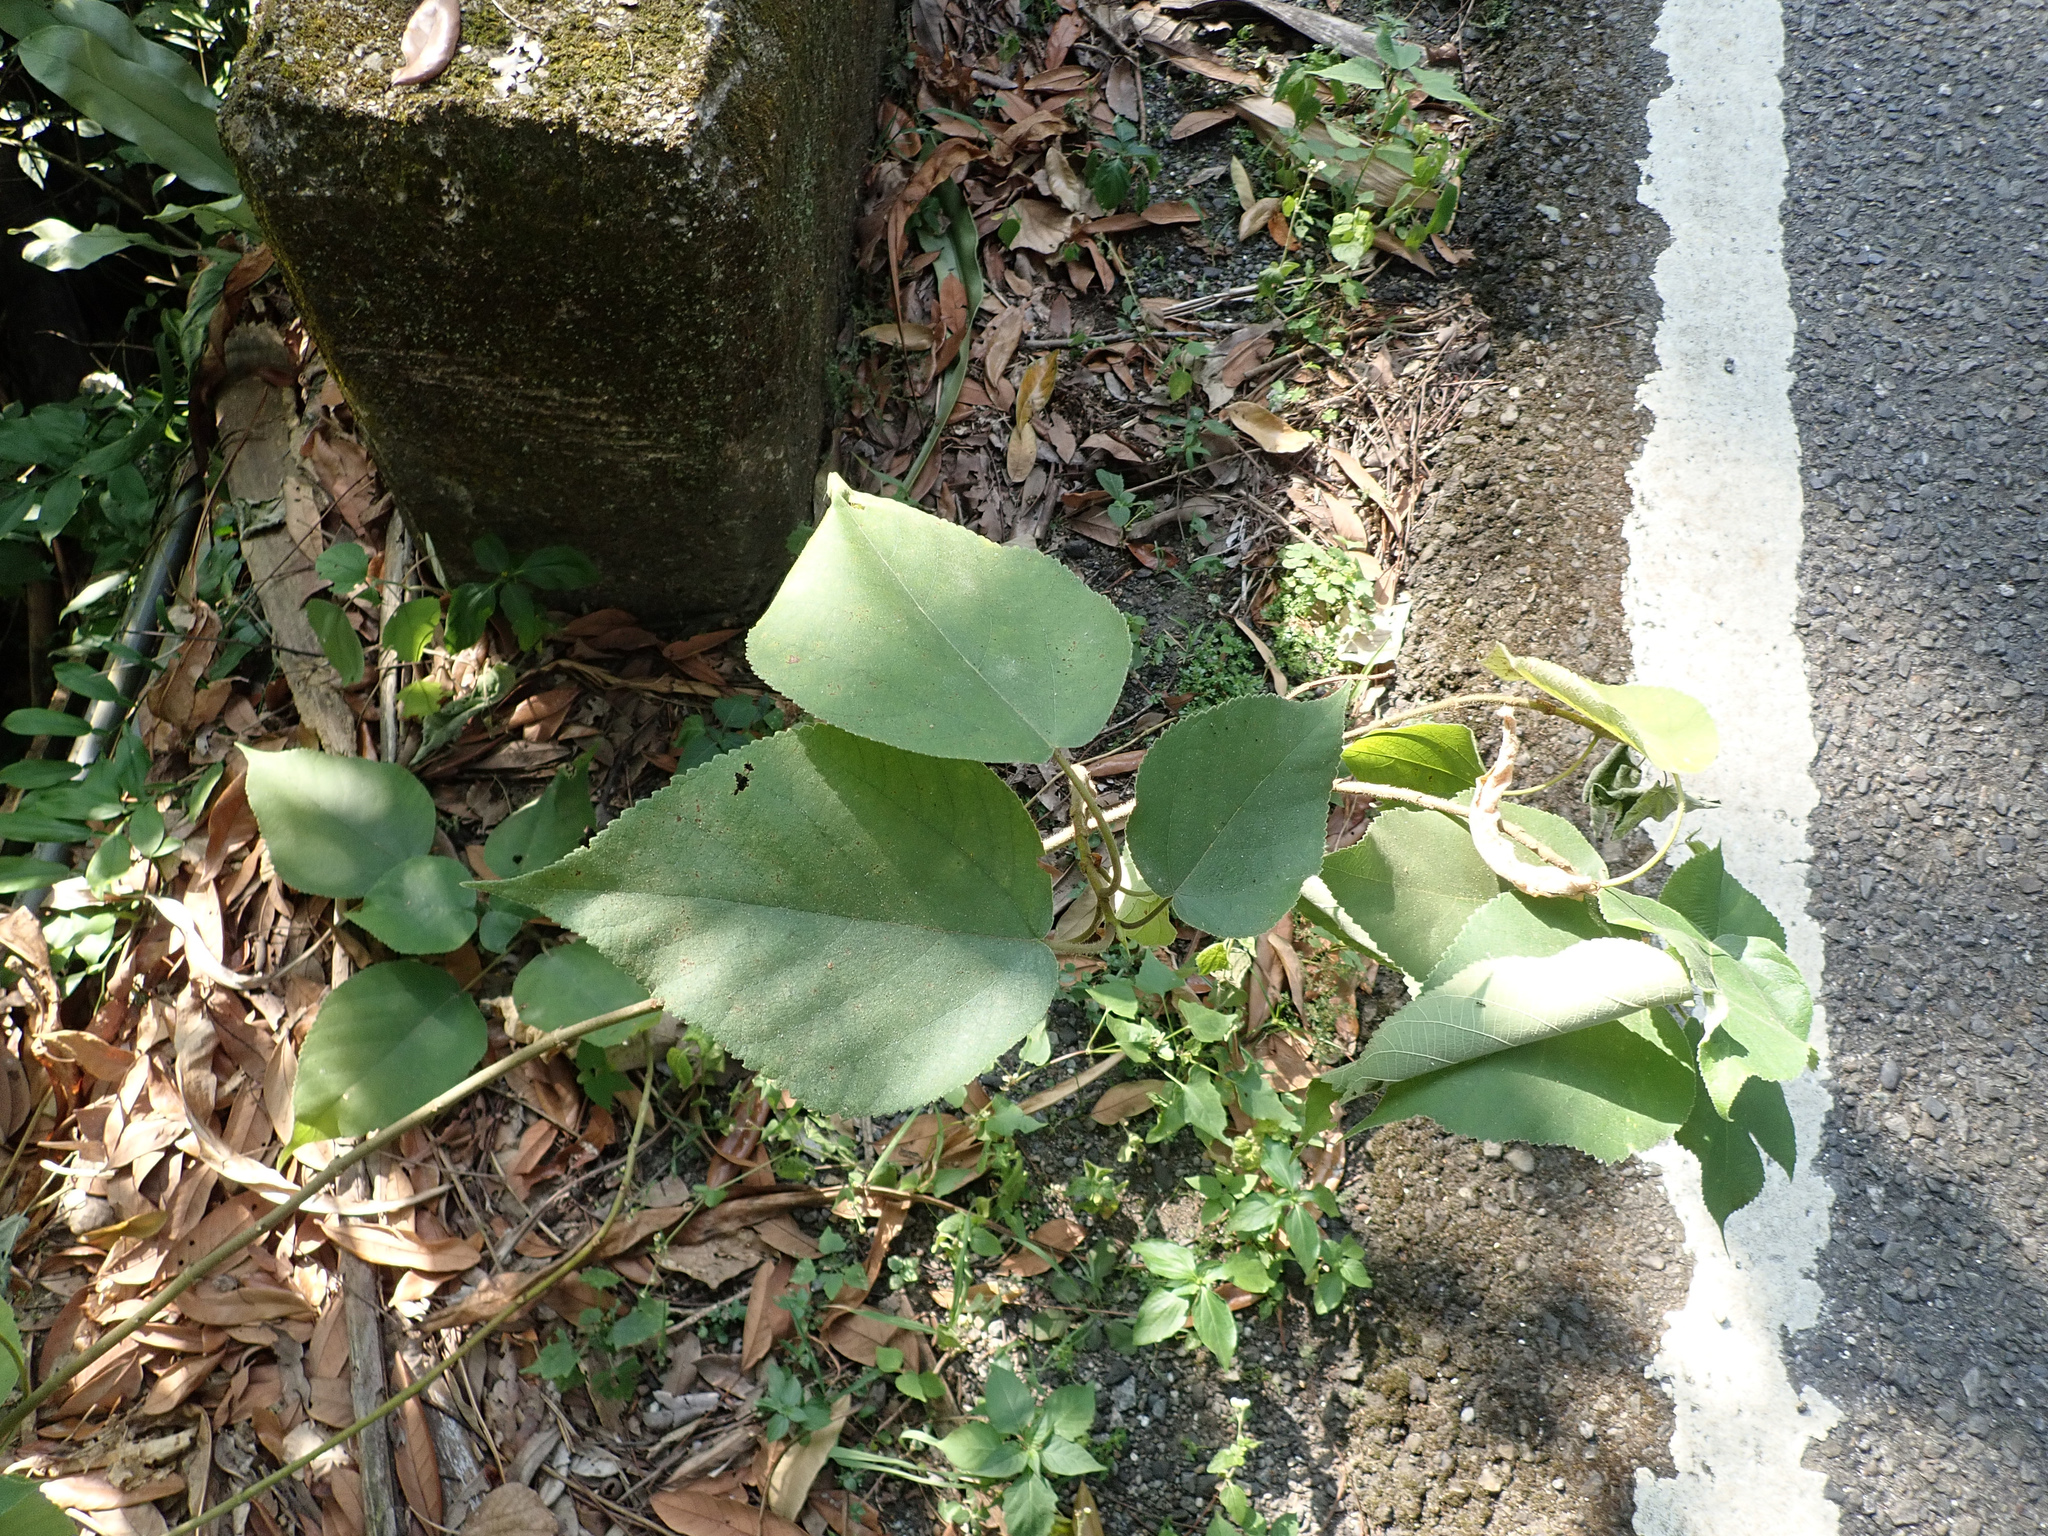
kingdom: Plantae
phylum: Tracheophyta
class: Magnoliopsida
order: Rosales
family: Moraceae
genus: Broussonetia
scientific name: Broussonetia papyrifera
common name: Paper mulberry
